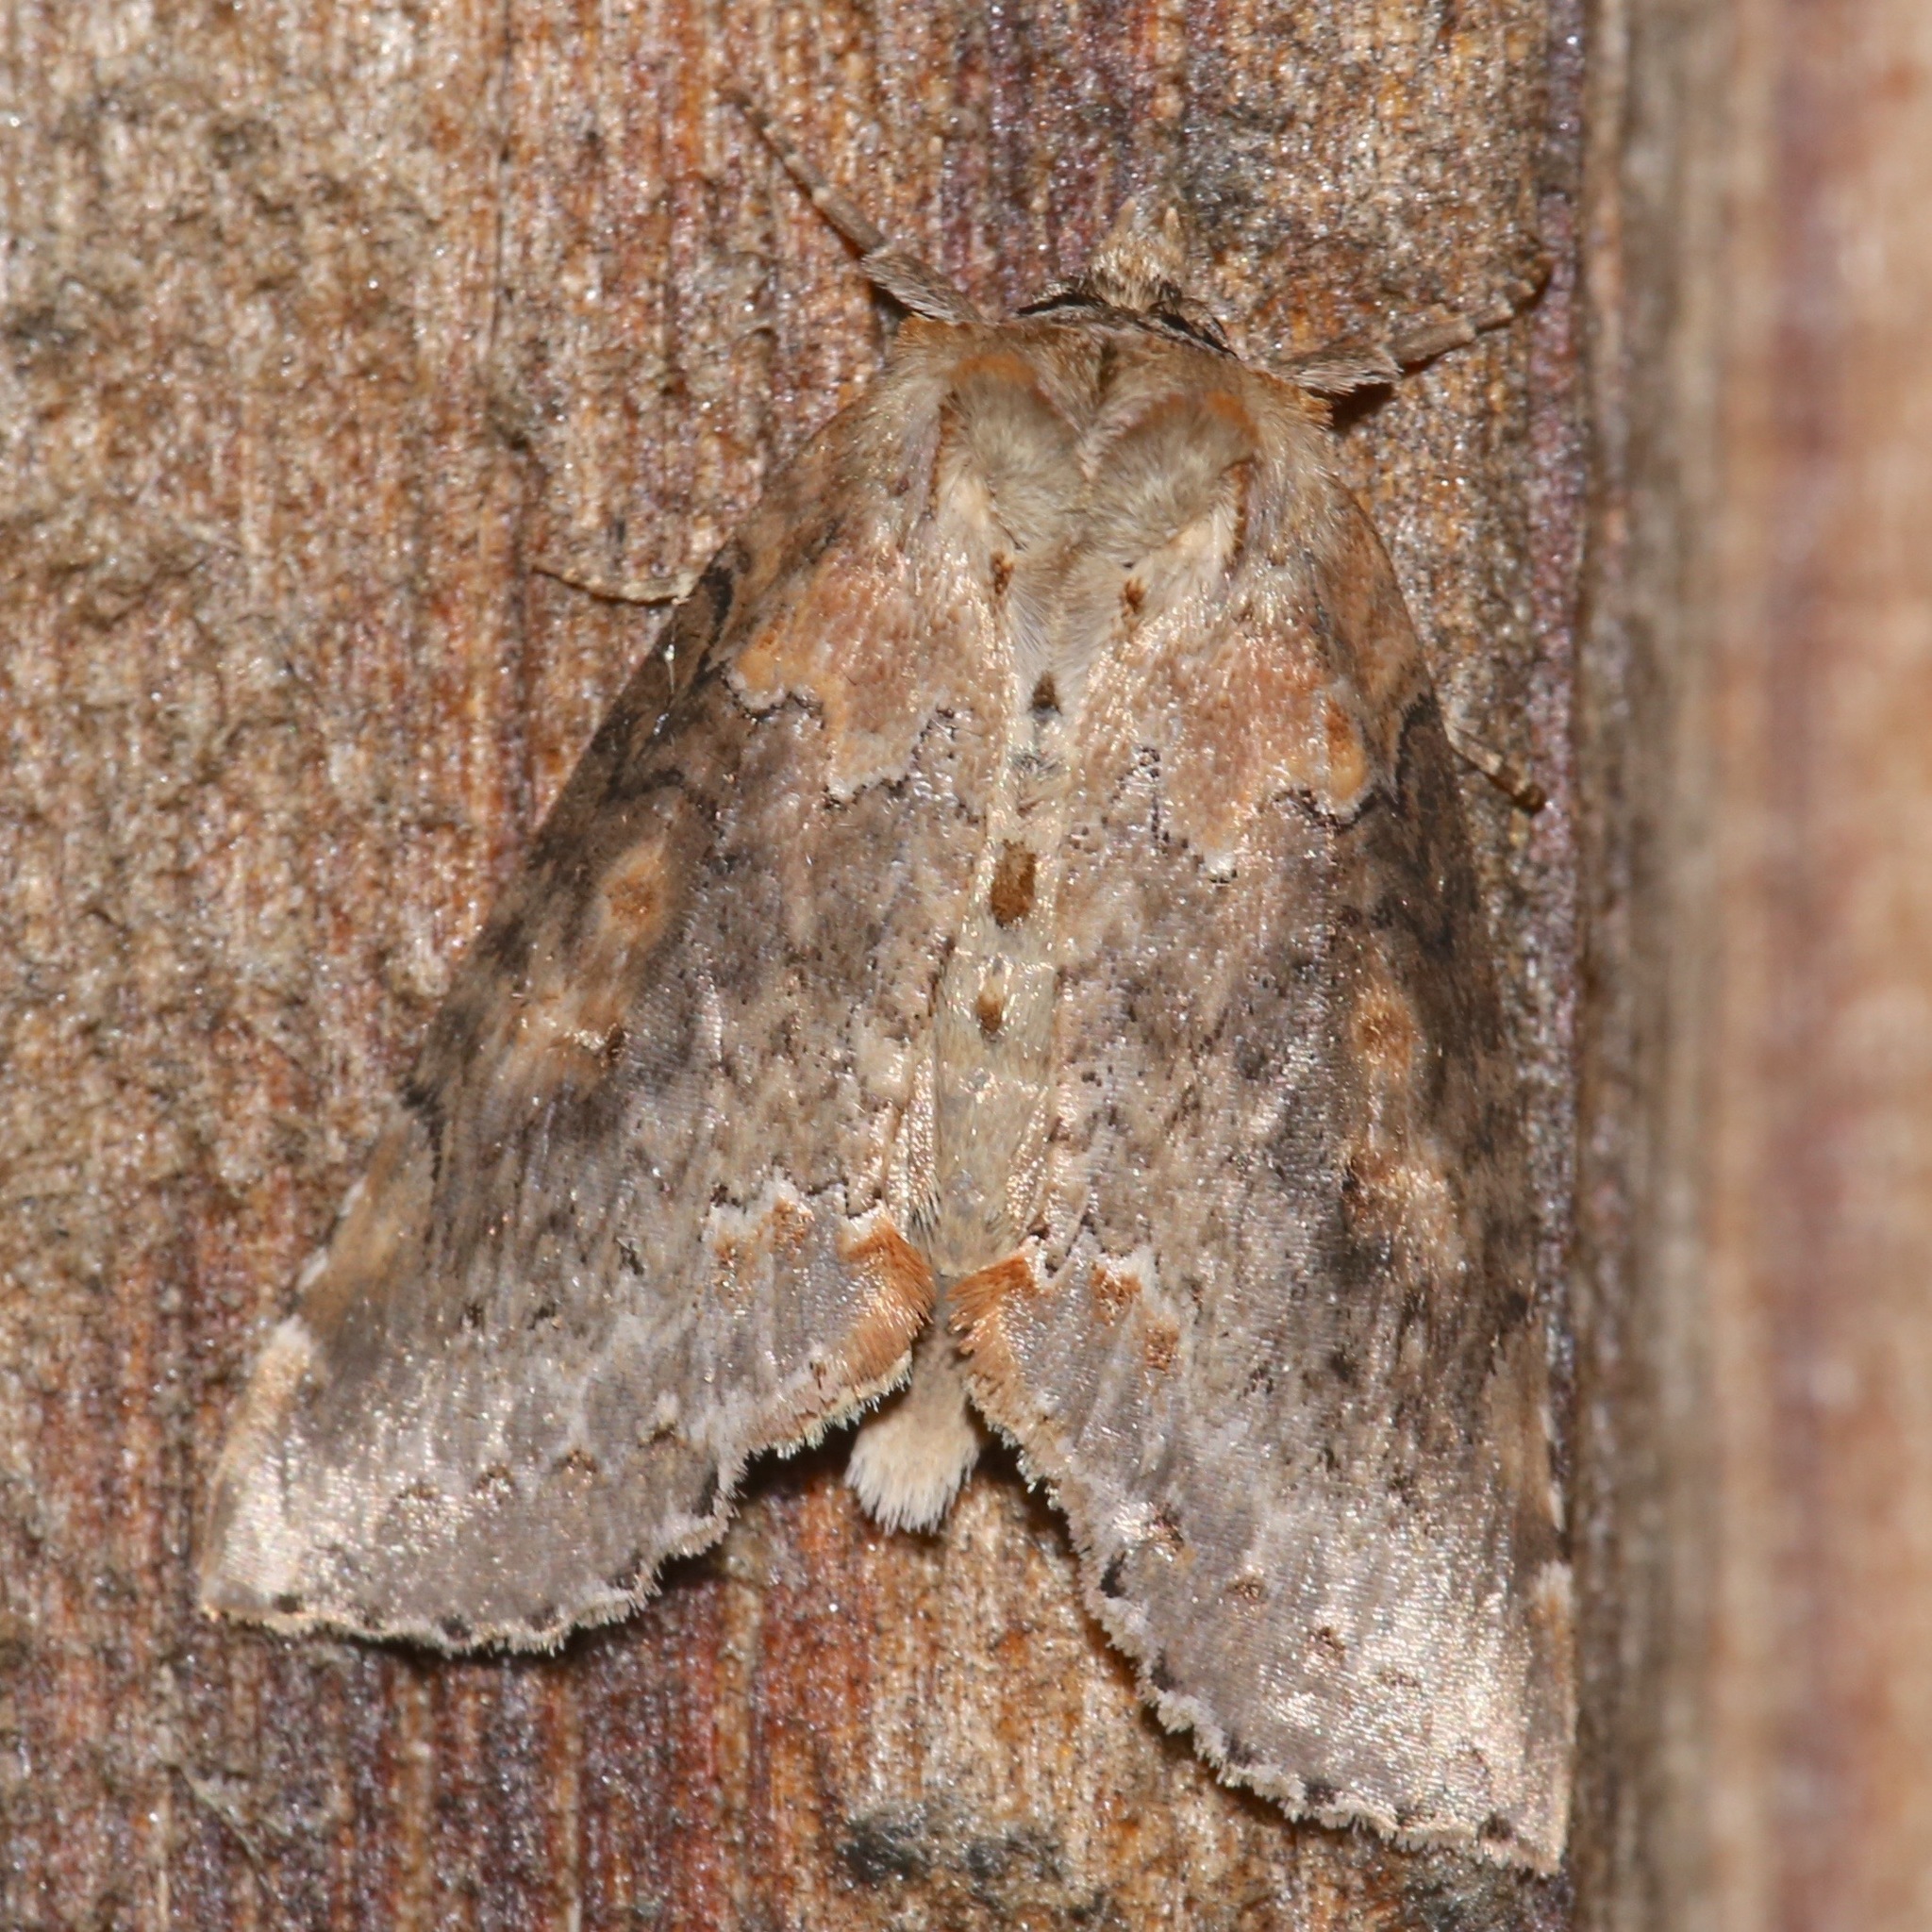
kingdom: Animalia
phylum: Arthropoda
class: Insecta
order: Lepidoptera
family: Drepanidae
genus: Pseudothyatira
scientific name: Pseudothyatira cymatophoroides
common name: Tufted thyatirid moth
